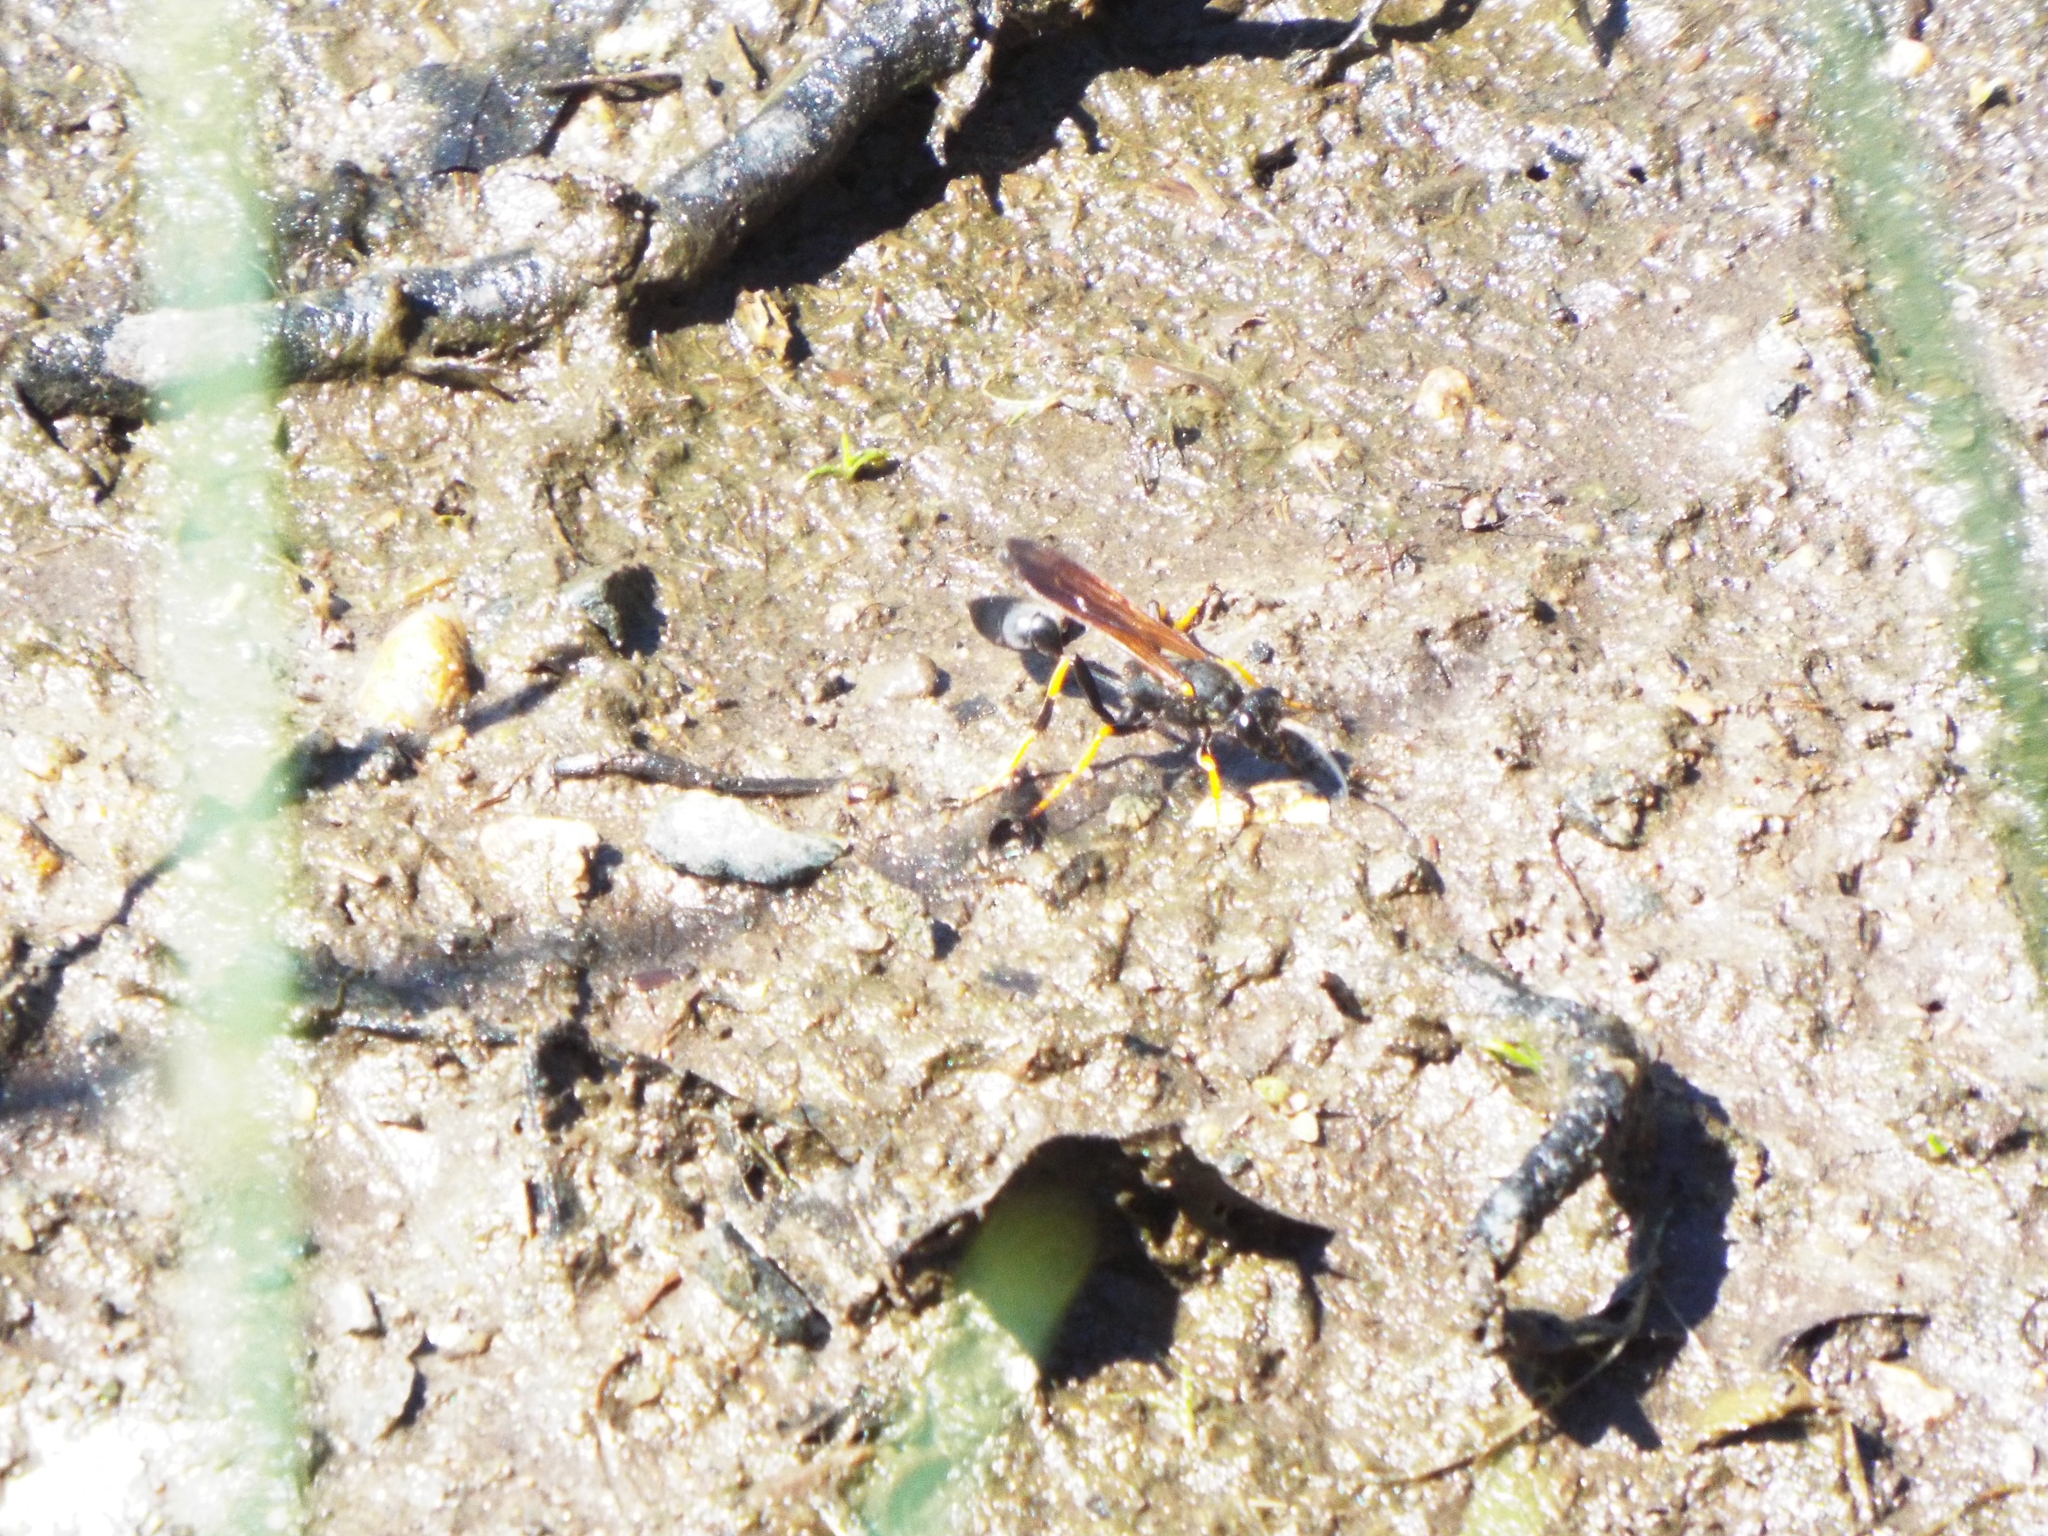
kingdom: Animalia
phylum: Arthropoda
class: Insecta
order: Hymenoptera
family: Sphecidae
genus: Sceliphron
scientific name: Sceliphron caementarium
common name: Mud dauber
